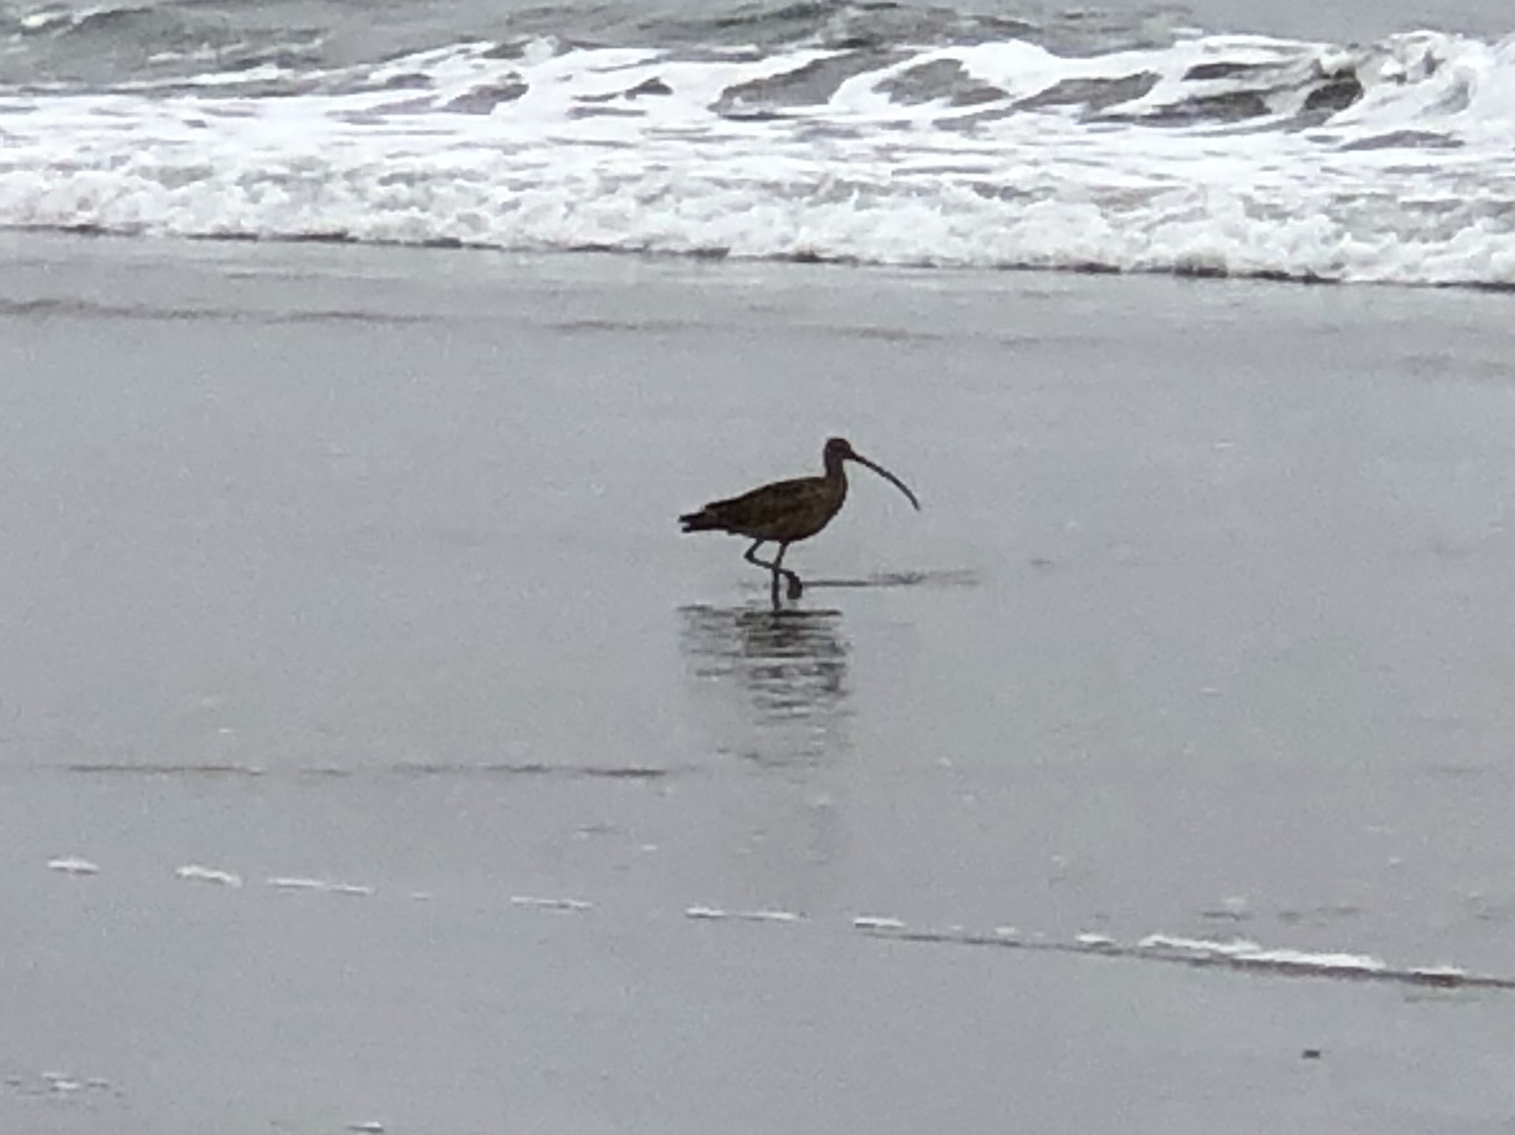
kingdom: Animalia
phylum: Chordata
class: Aves
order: Charadriiformes
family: Scolopacidae
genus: Numenius
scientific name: Numenius americanus
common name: Long-billed curlew
